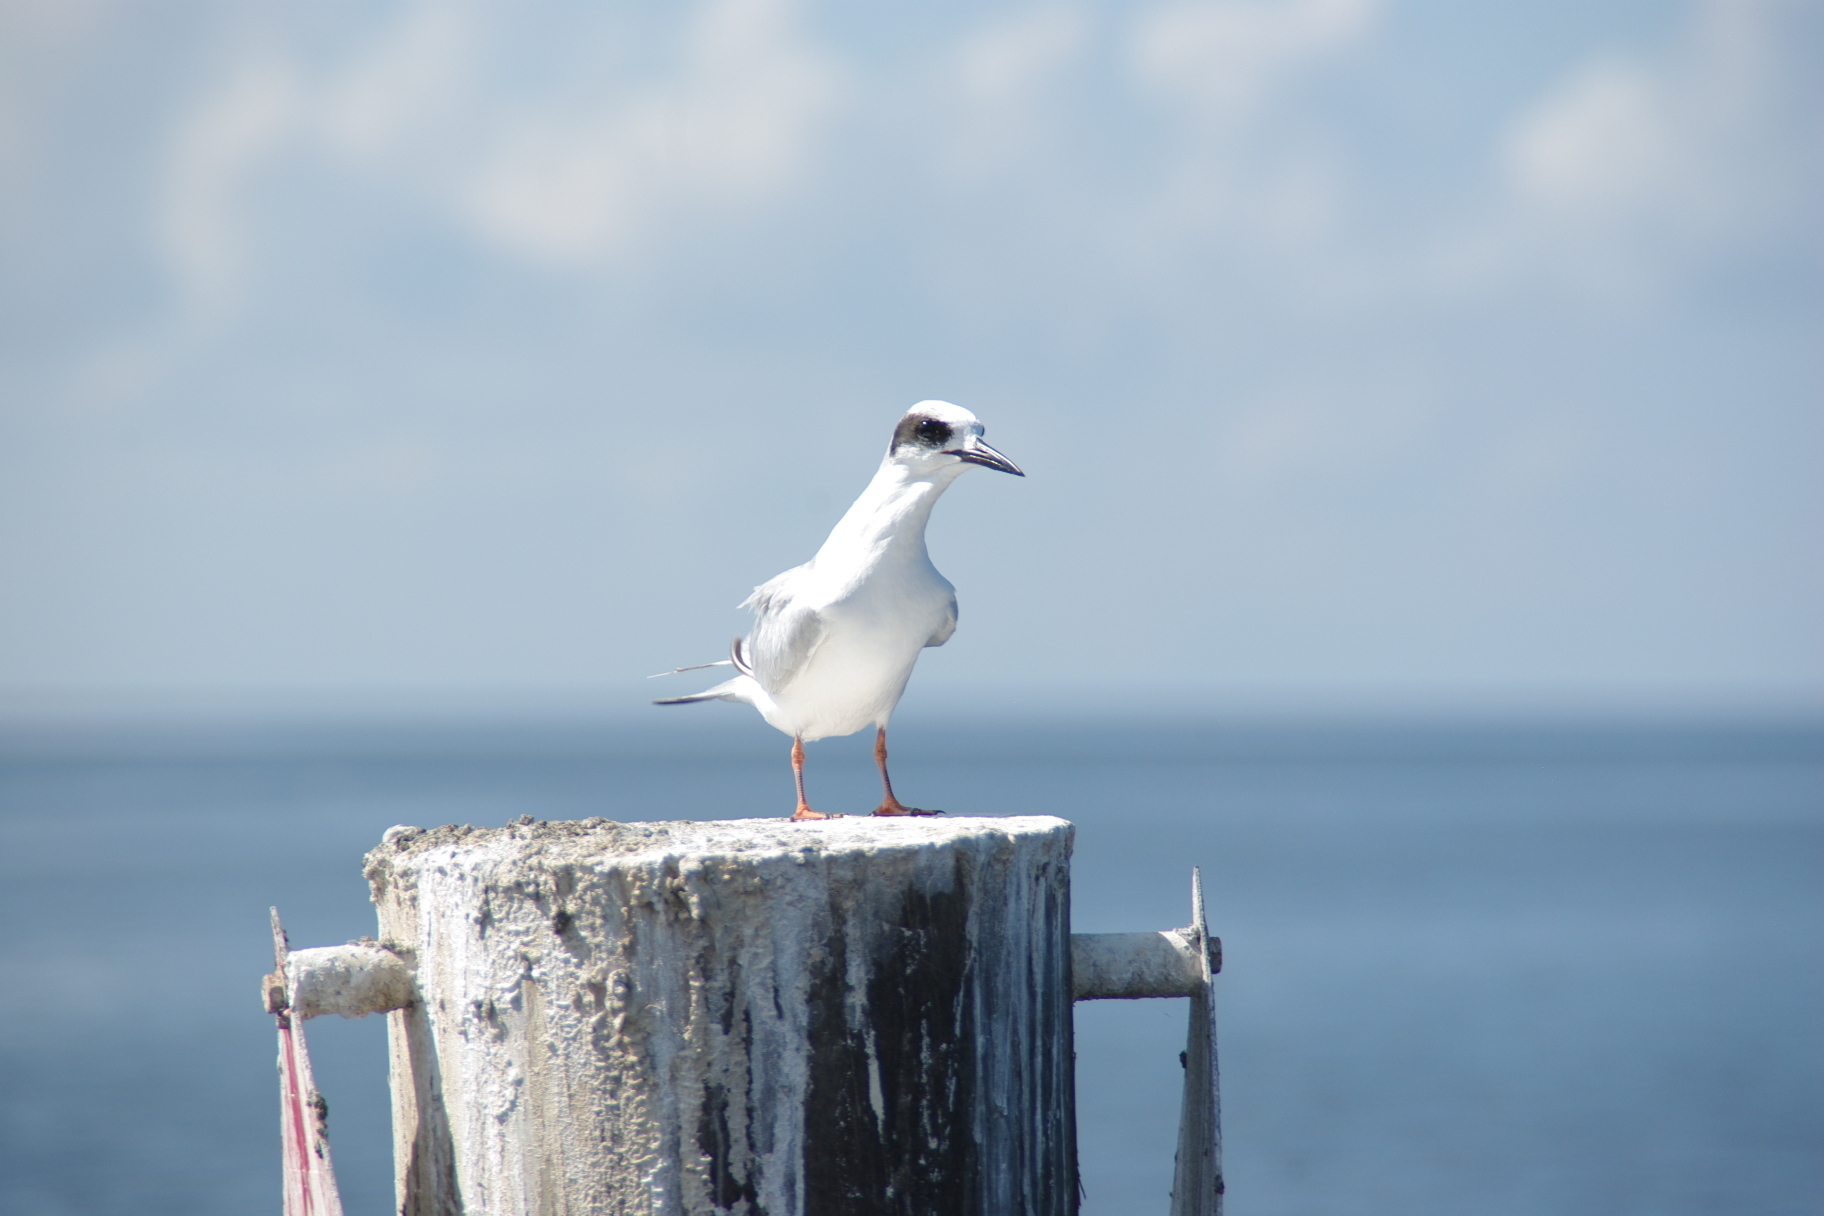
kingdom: Animalia
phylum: Chordata
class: Aves
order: Charadriiformes
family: Laridae
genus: Sterna
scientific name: Sterna forsteri
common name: Forster's tern
